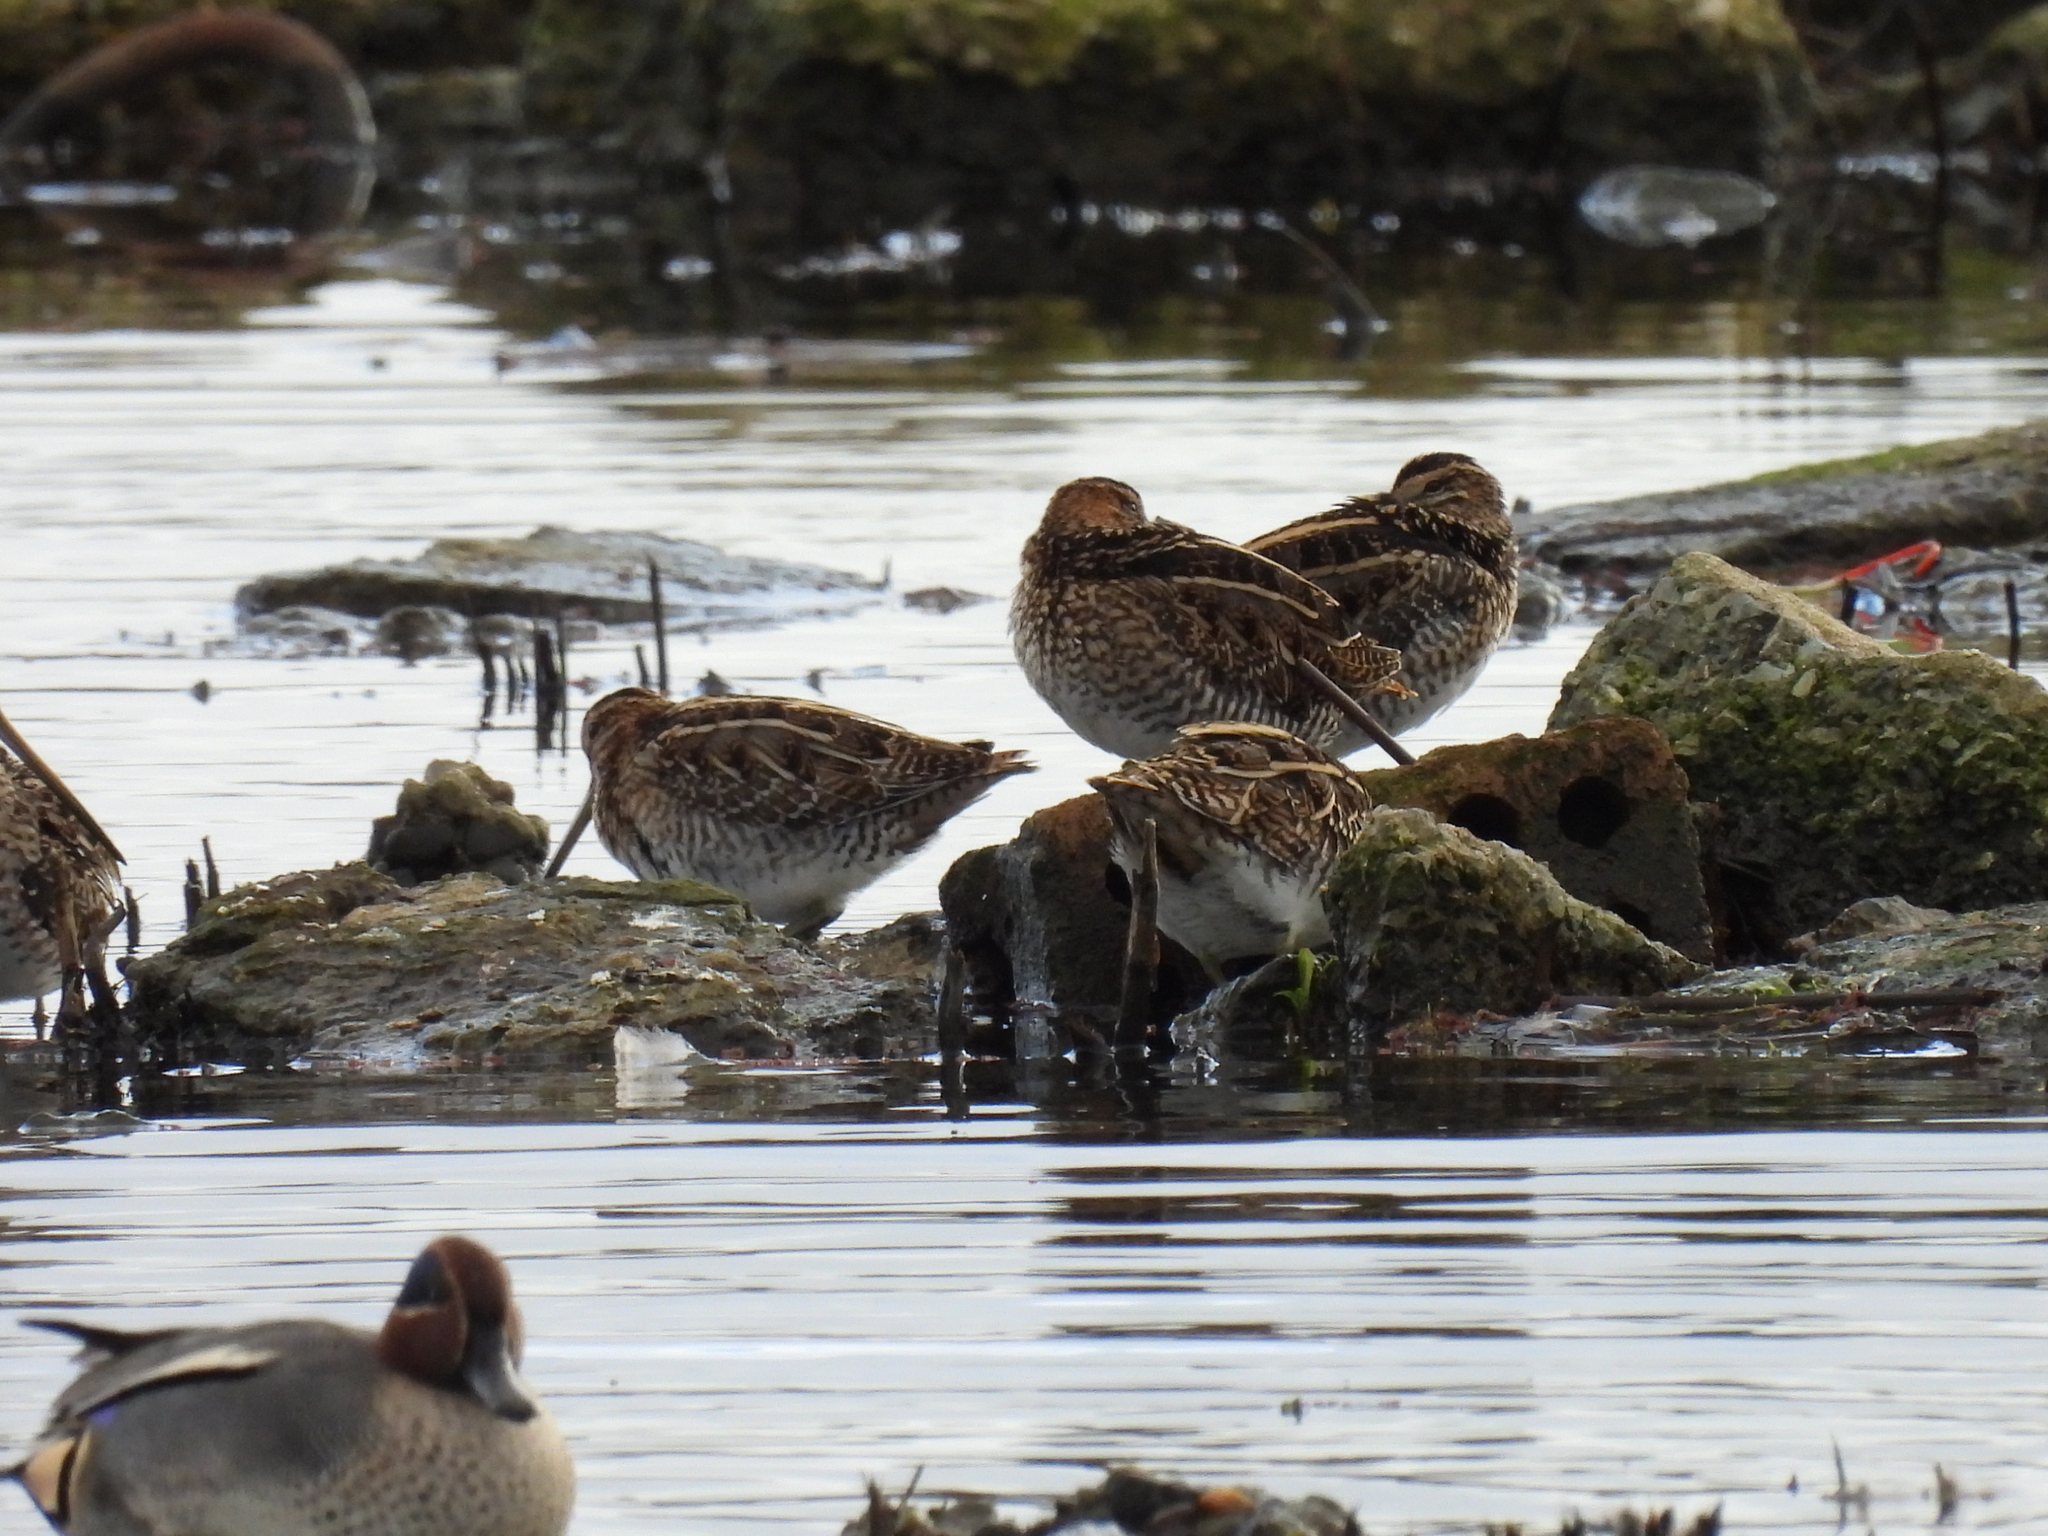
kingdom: Animalia
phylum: Chordata
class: Aves
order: Charadriiformes
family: Scolopacidae
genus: Gallinago
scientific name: Gallinago gallinago
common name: Common snipe
